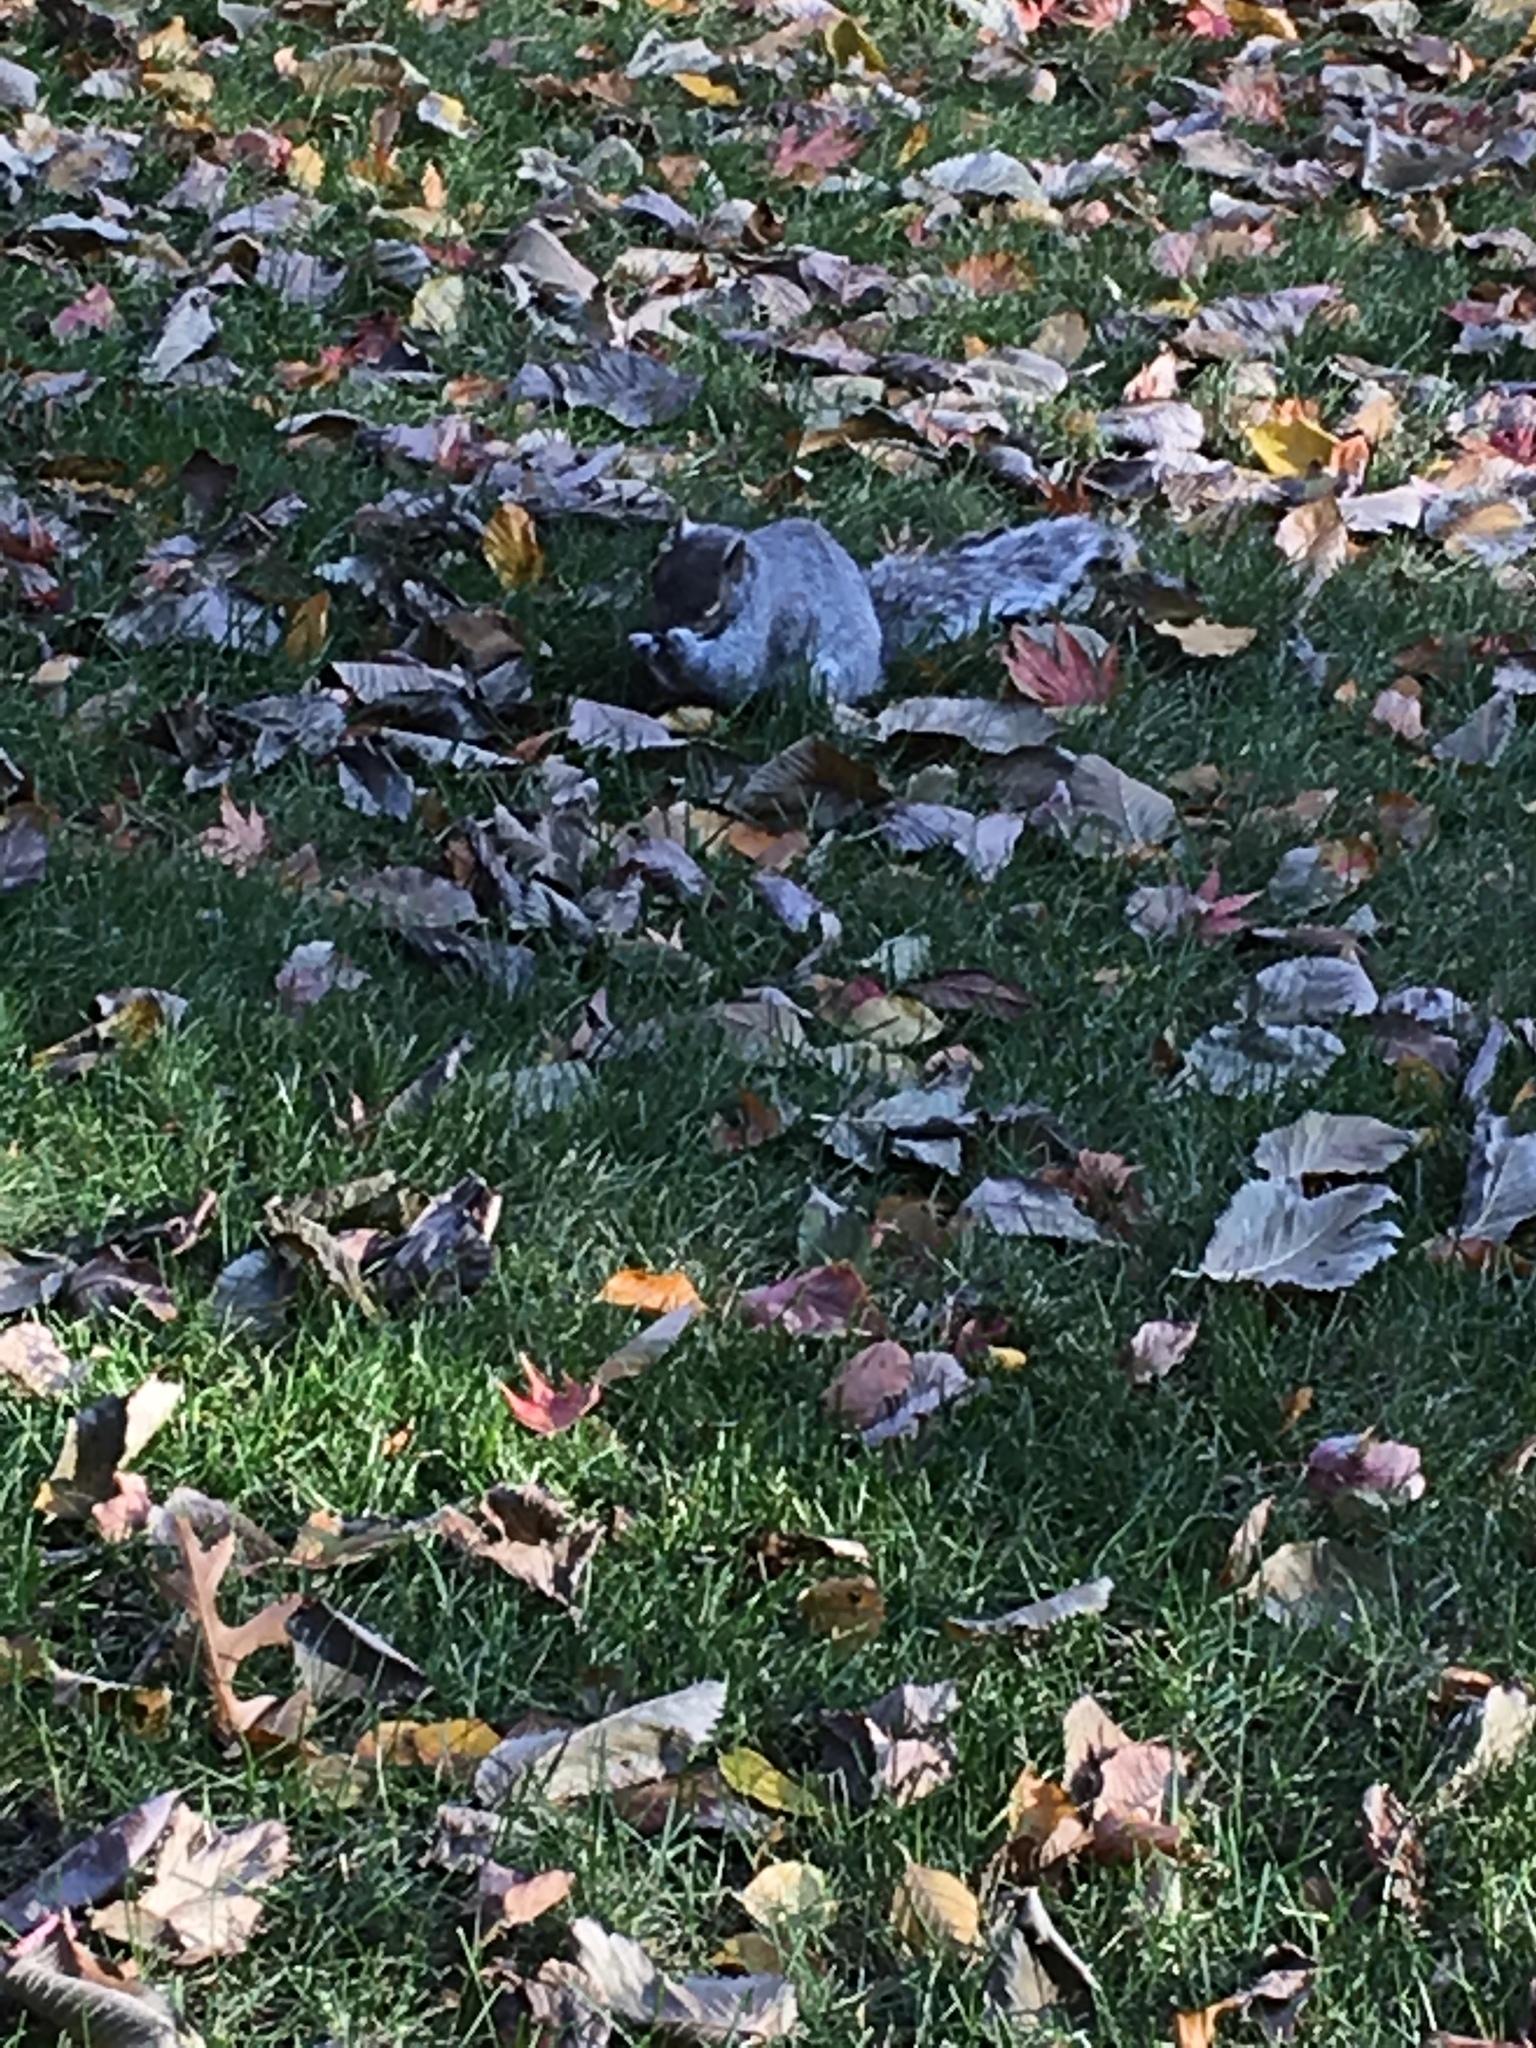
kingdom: Animalia
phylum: Chordata
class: Mammalia
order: Rodentia
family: Sciuridae
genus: Sciurus
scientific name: Sciurus carolinensis
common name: Eastern gray squirrel
